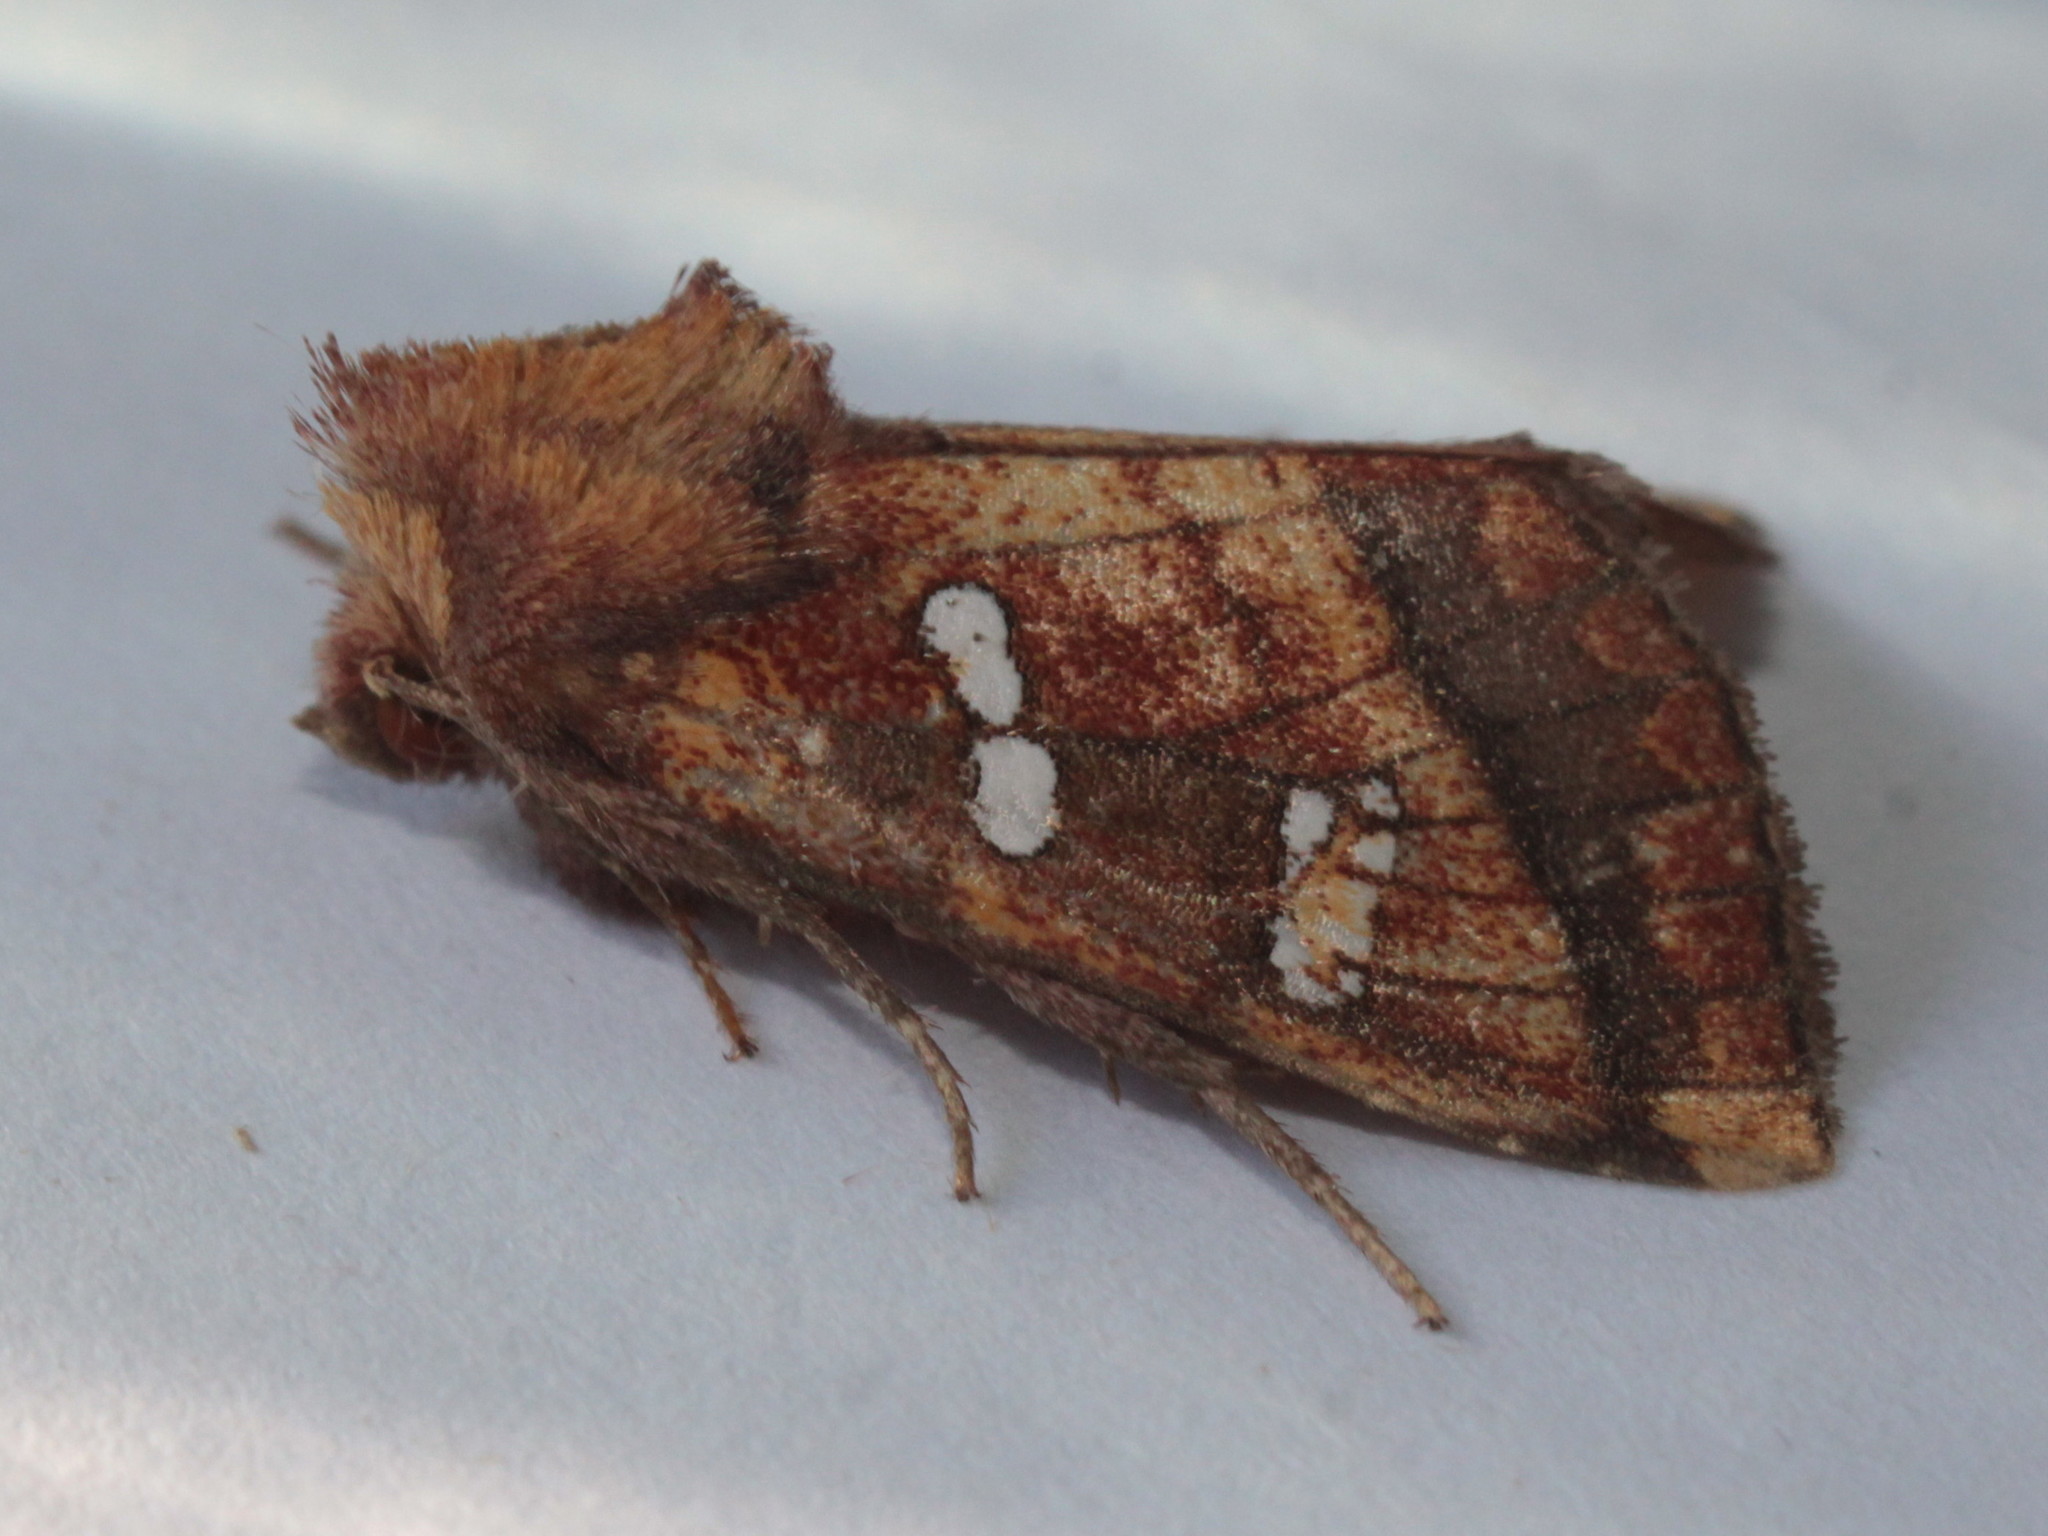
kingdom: Animalia
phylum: Arthropoda
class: Insecta
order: Lepidoptera
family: Noctuidae
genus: Papaipema
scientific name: Papaipema pterisii
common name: Bracken borer moth
